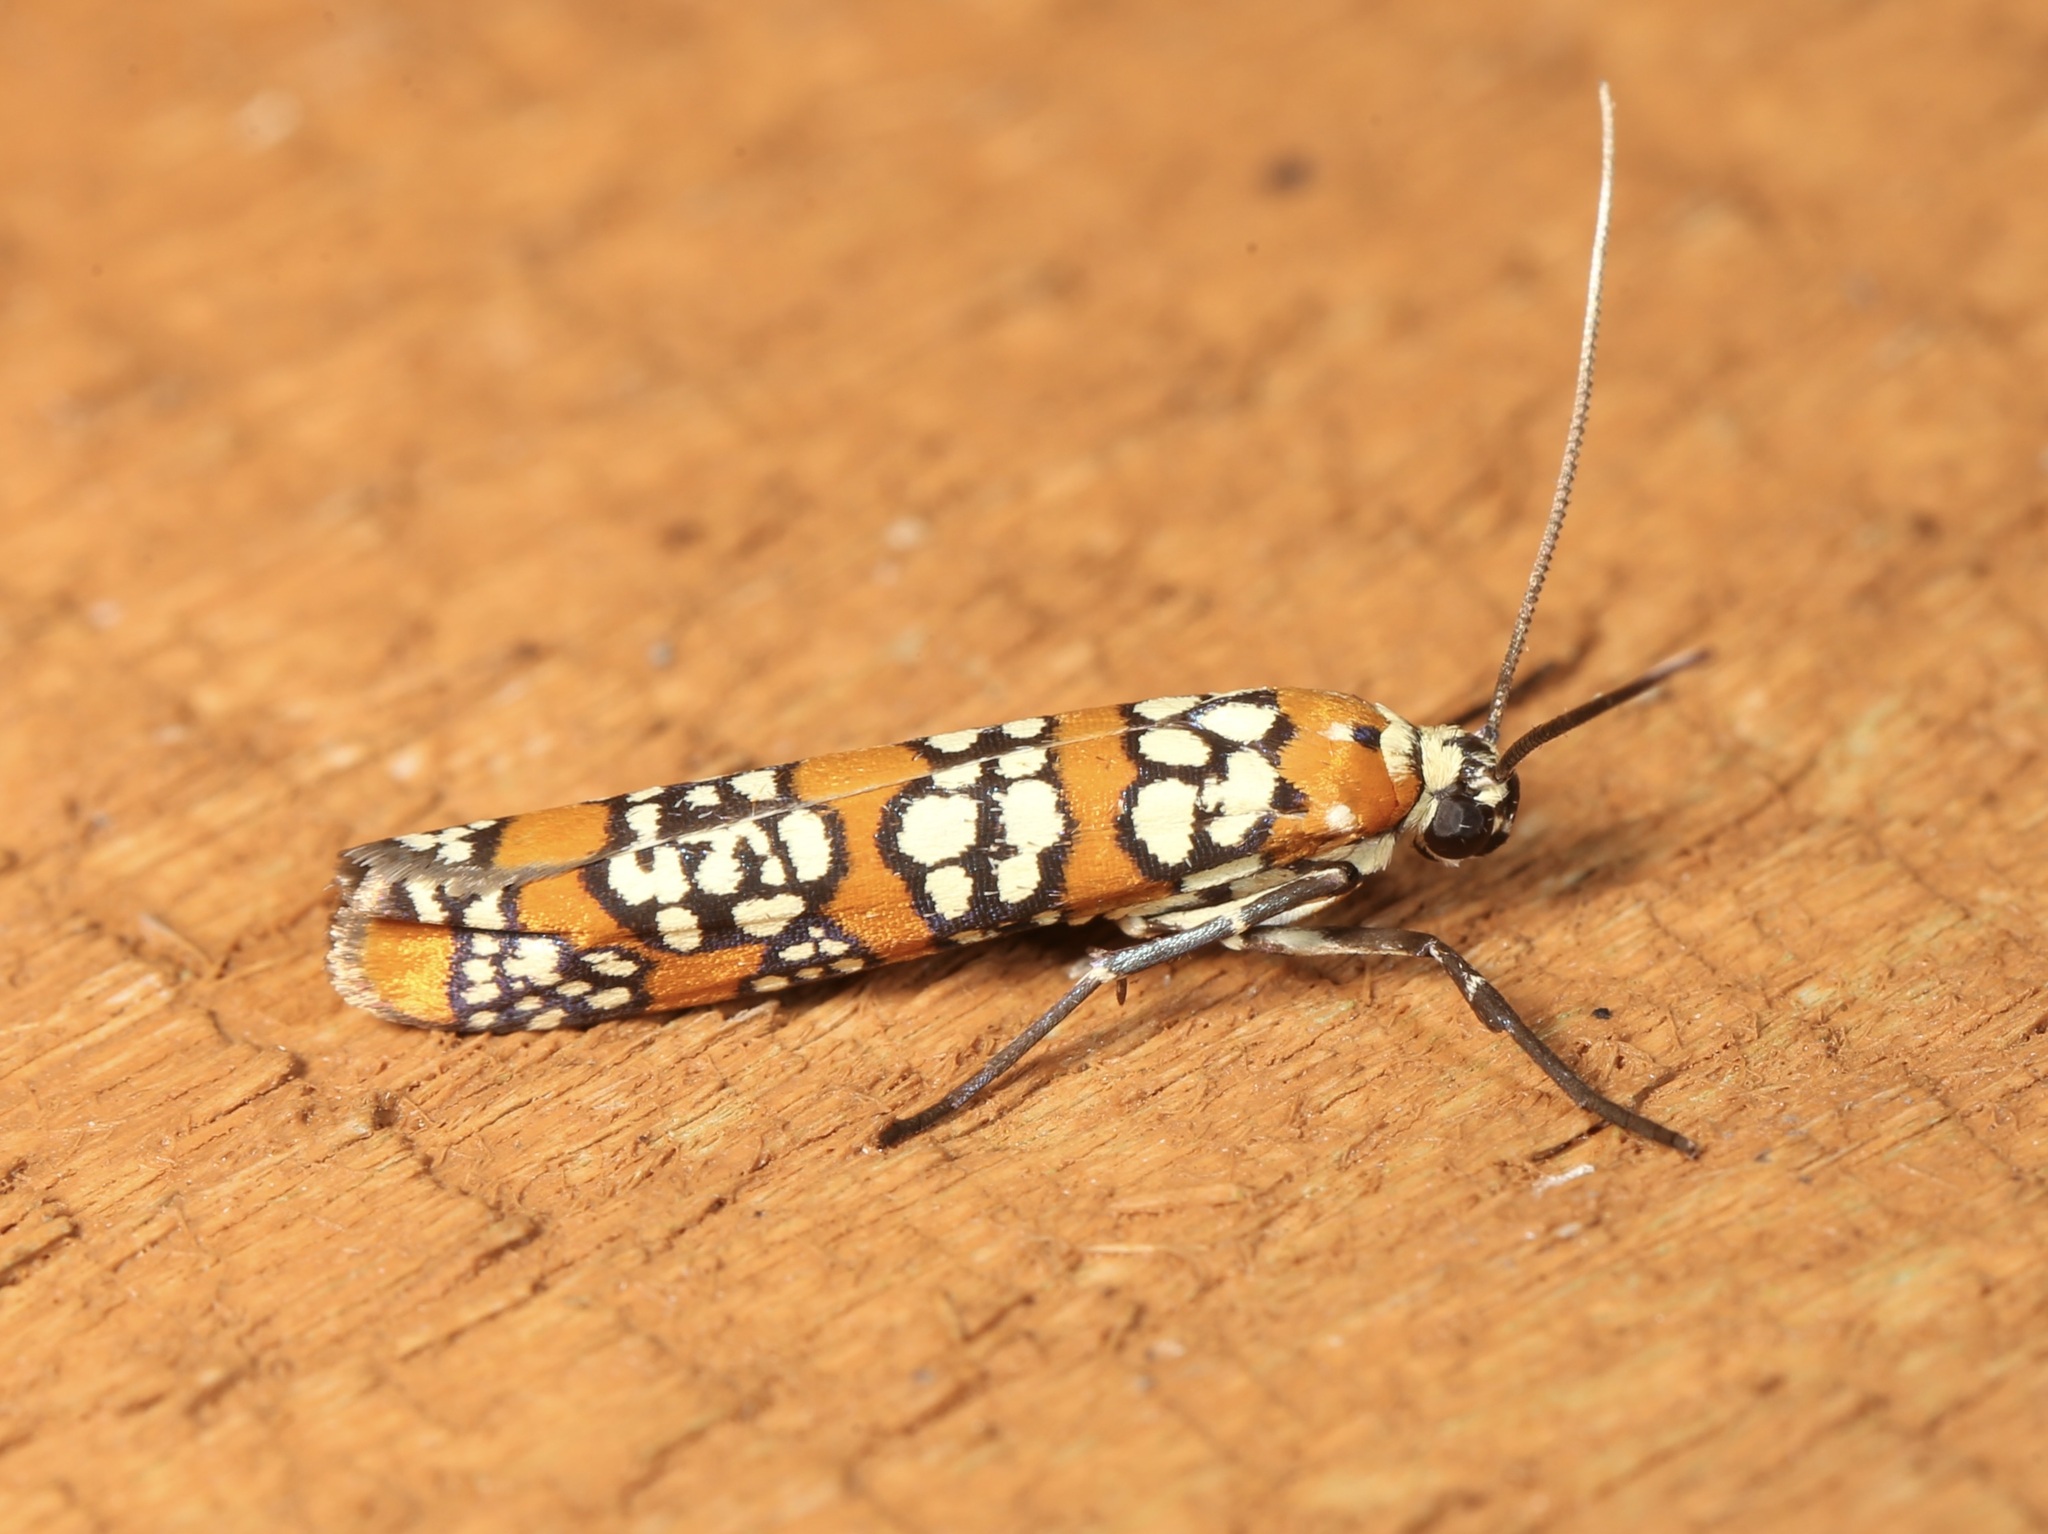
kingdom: Animalia
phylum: Arthropoda
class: Insecta
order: Lepidoptera
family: Attevidae
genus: Atteva
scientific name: Atteva punctella
